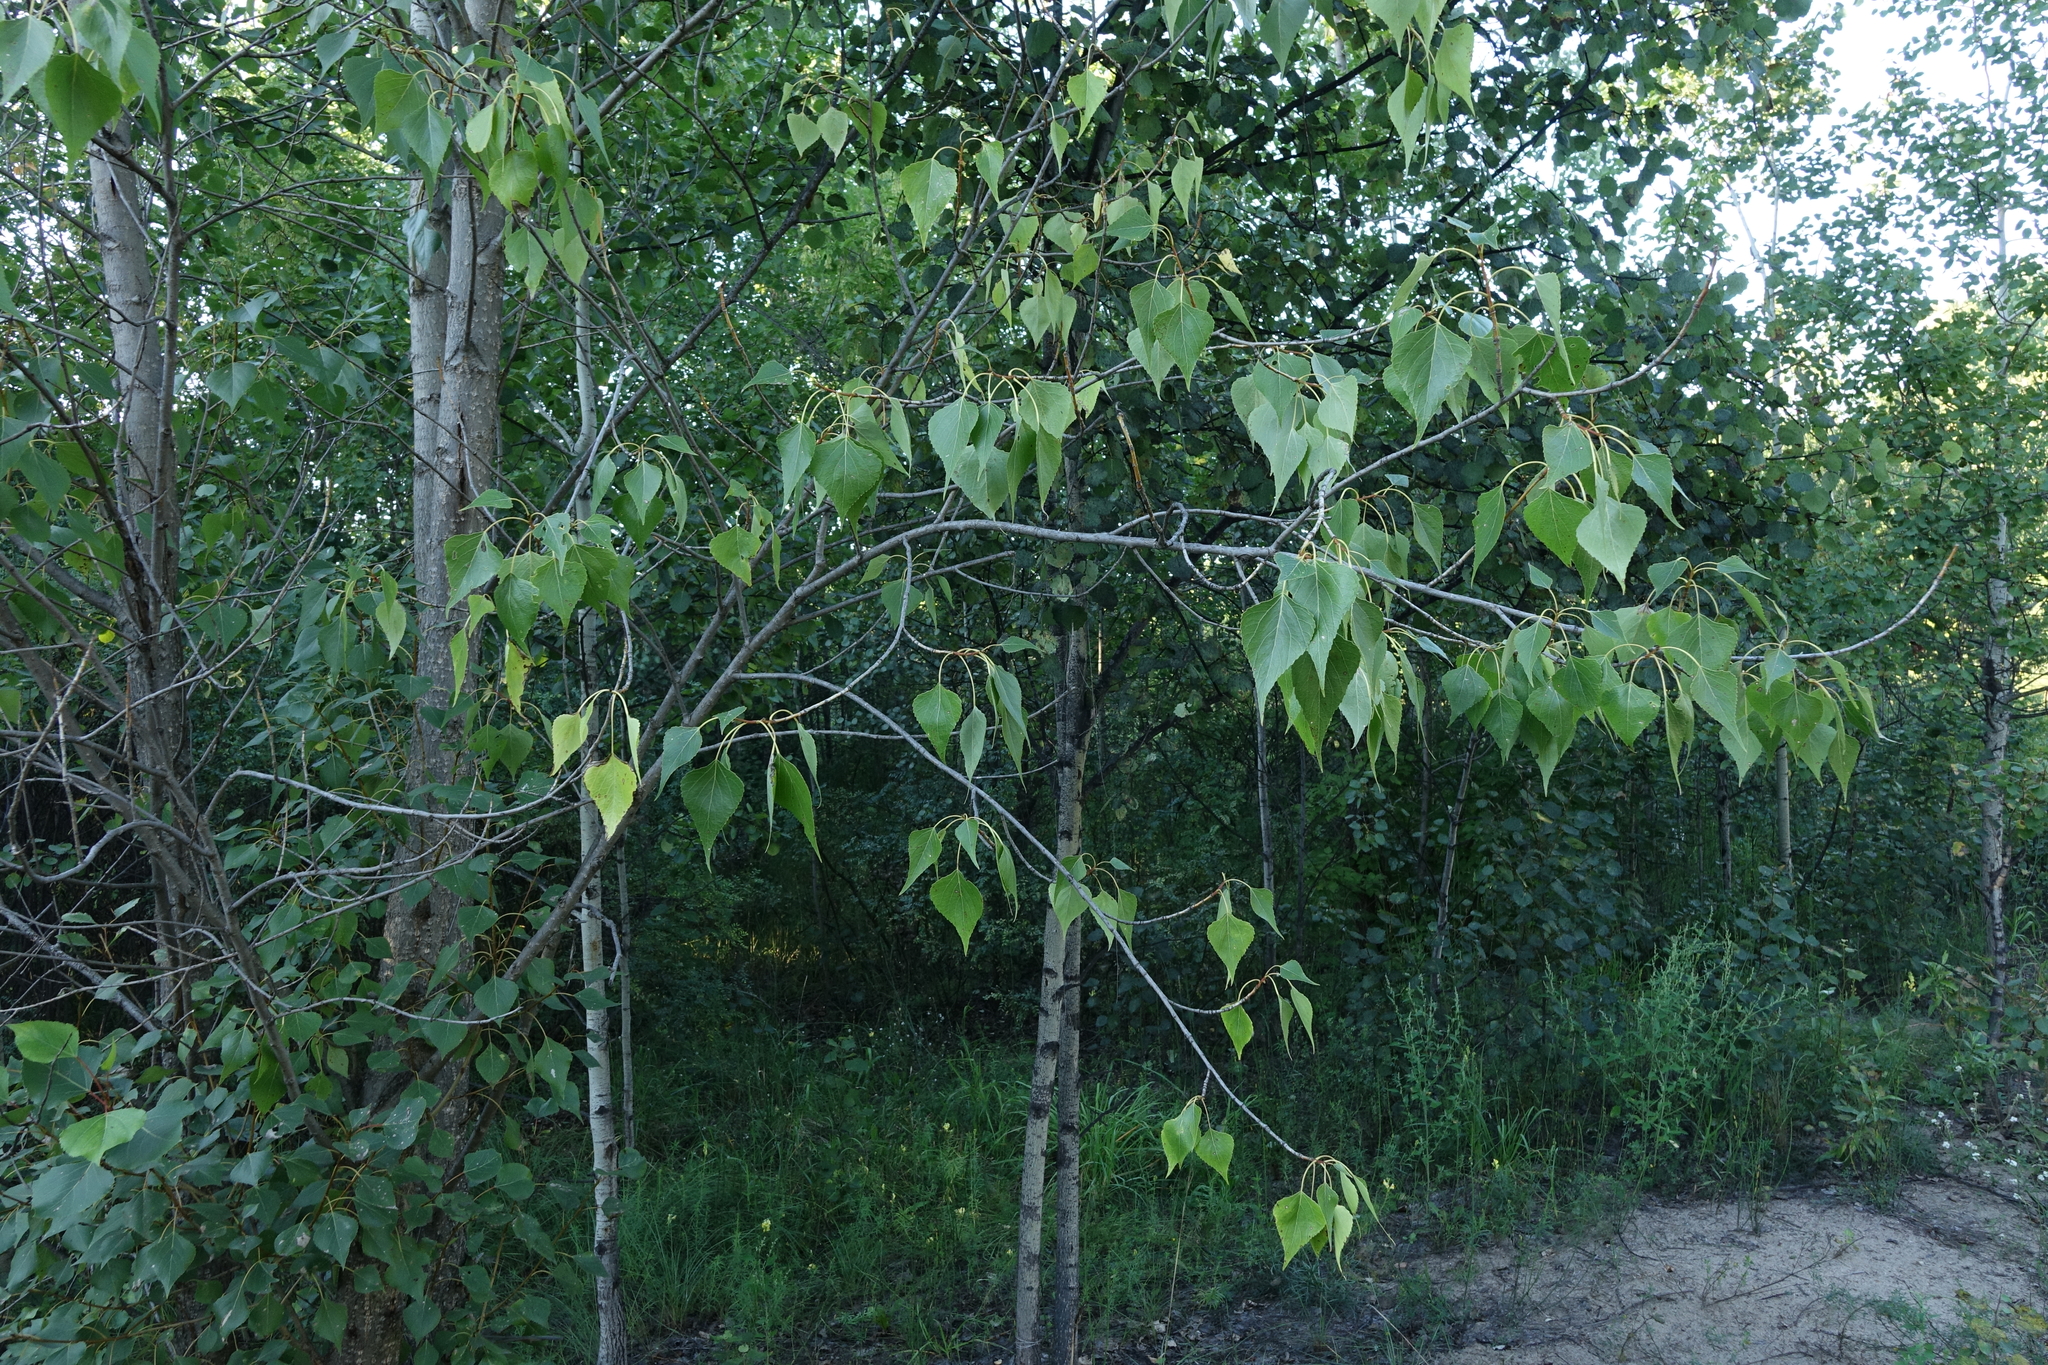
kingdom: Plantae
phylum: Tracheophyta
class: Magnoliopsida
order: Malpighiales
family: Salicaceae
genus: Populus
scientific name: Populus nigra
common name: Black poplar
